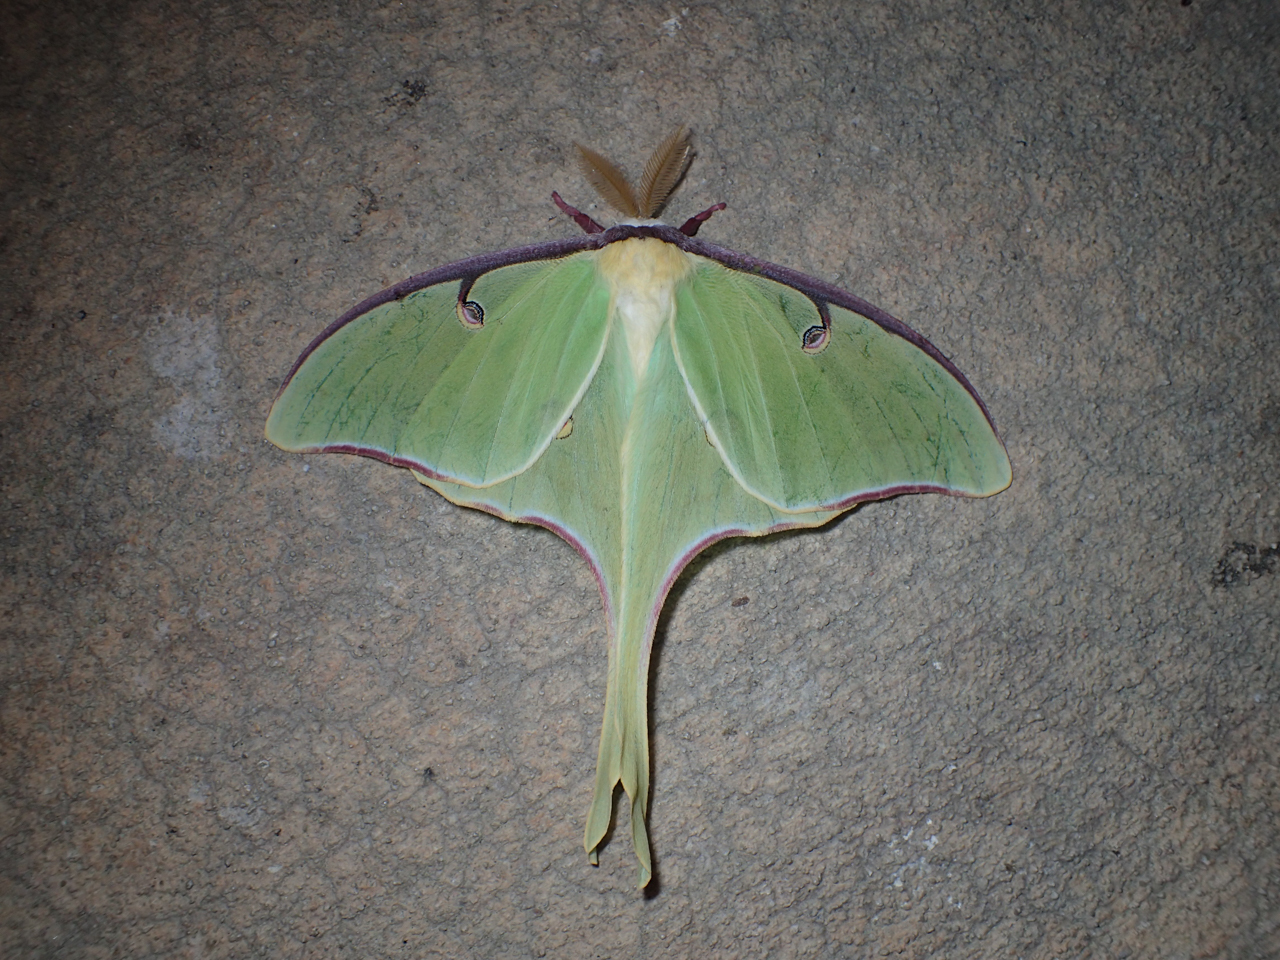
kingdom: Animalia
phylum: Arthropoda
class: Insecta
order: Lepidoptera
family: Saturniidae
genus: Actias
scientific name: Actias luna
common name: Luna moth
